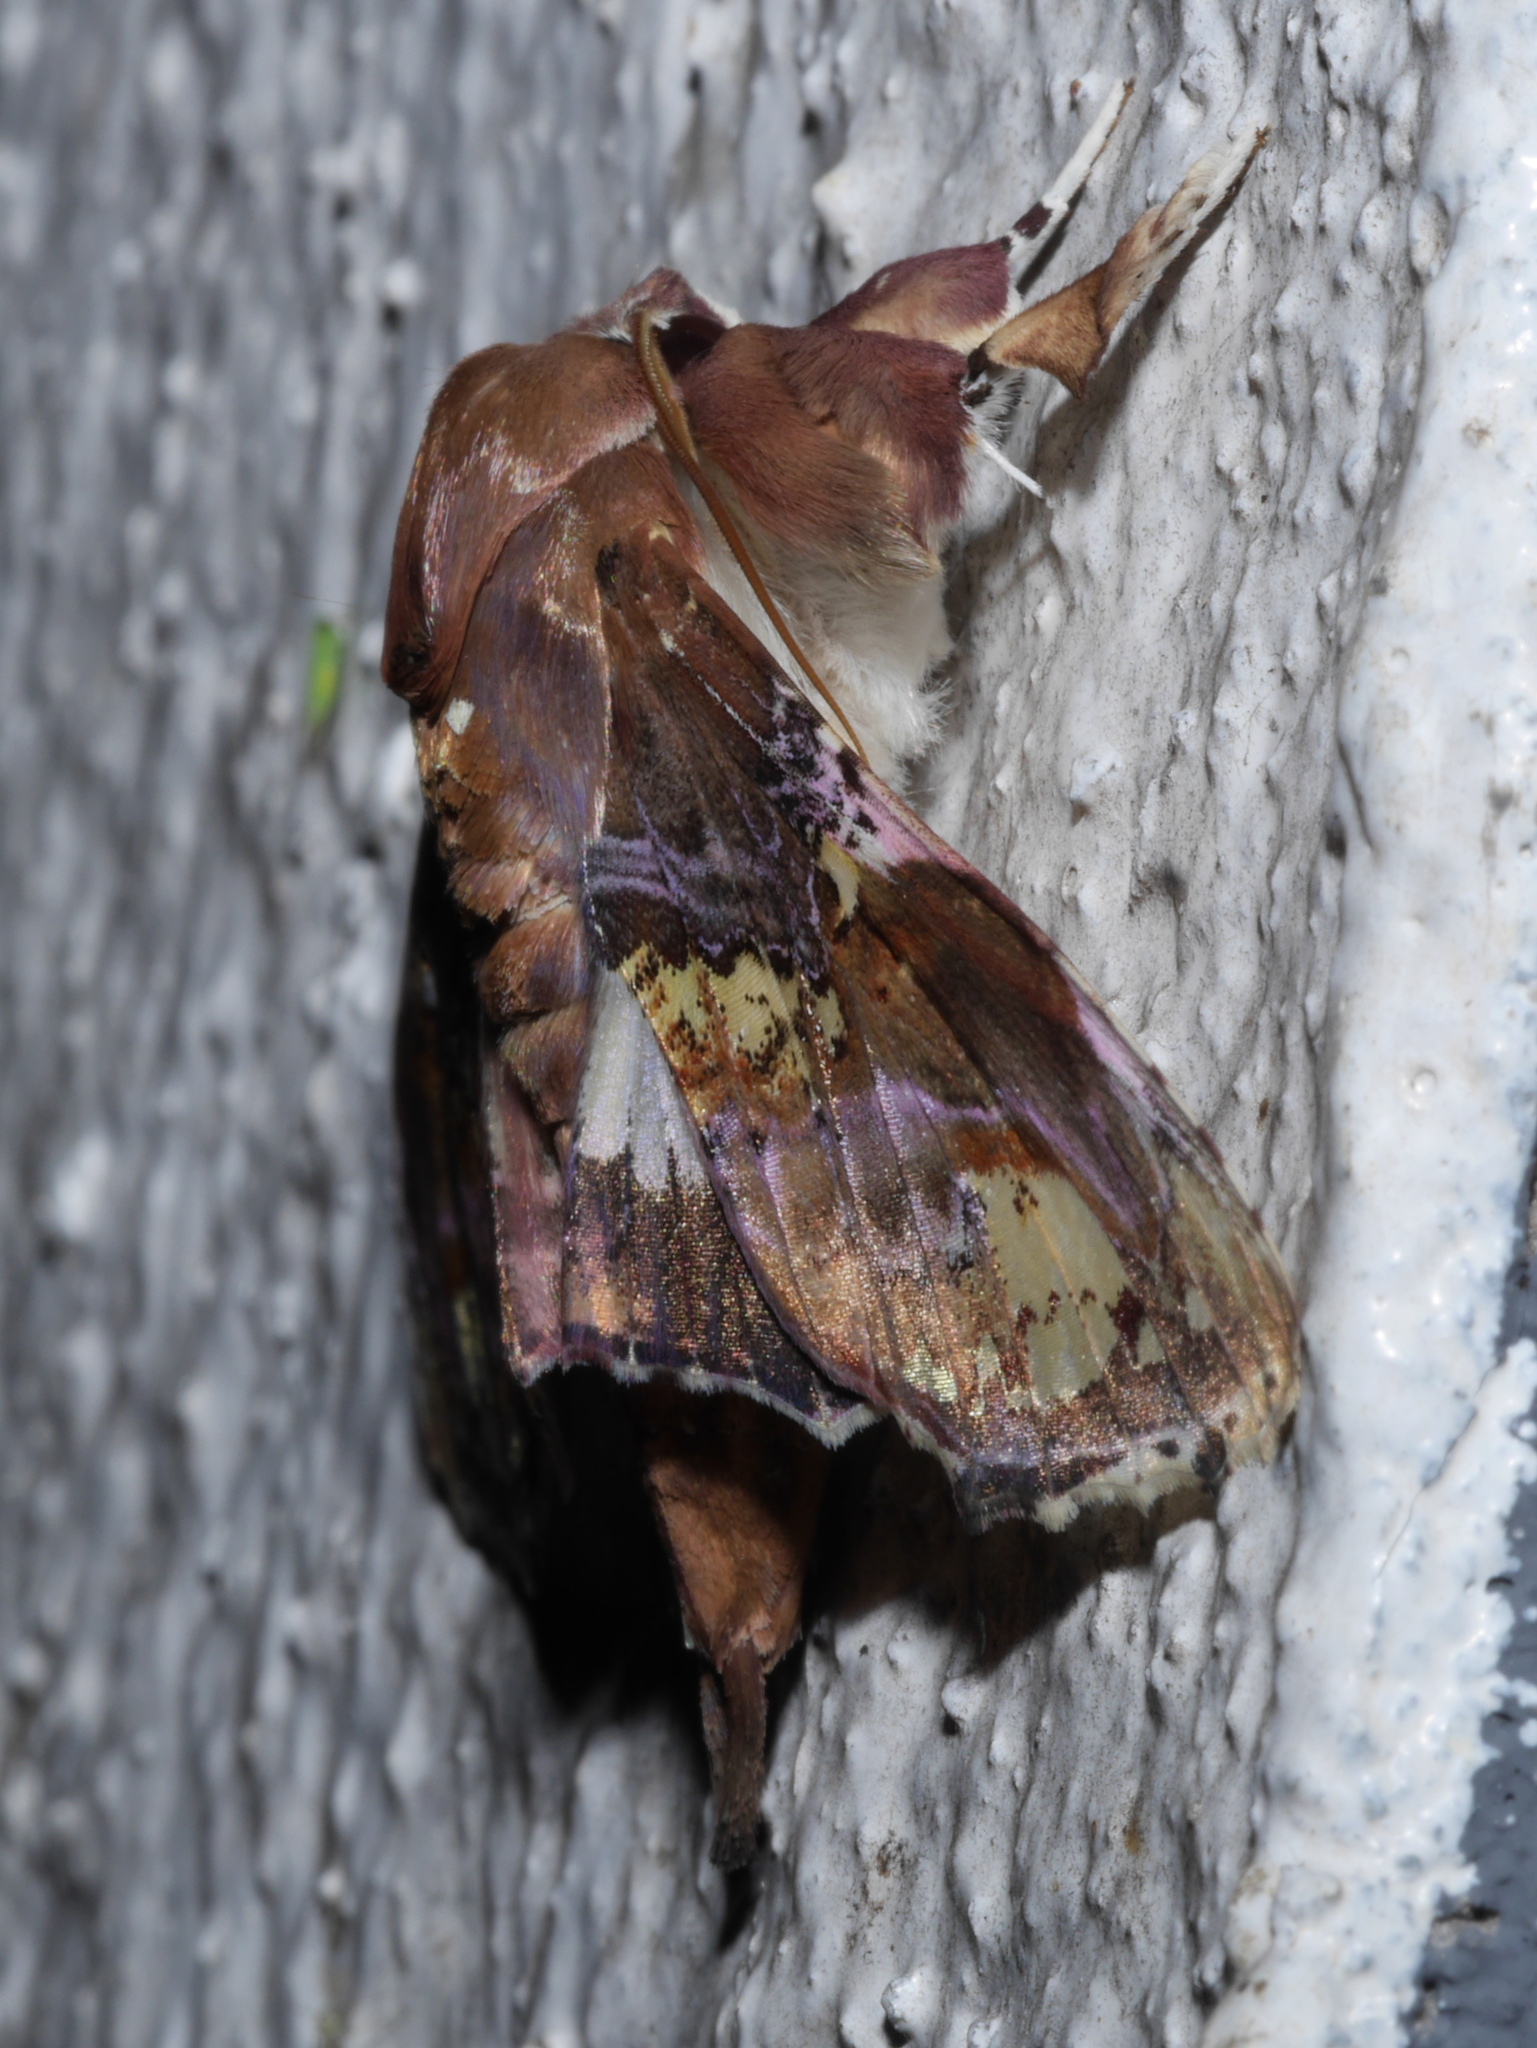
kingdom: Animalia
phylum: Arthropoda
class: Insecta
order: Lepidoptera
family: Euteliidae
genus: Caligatus
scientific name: Caligatus angasii
